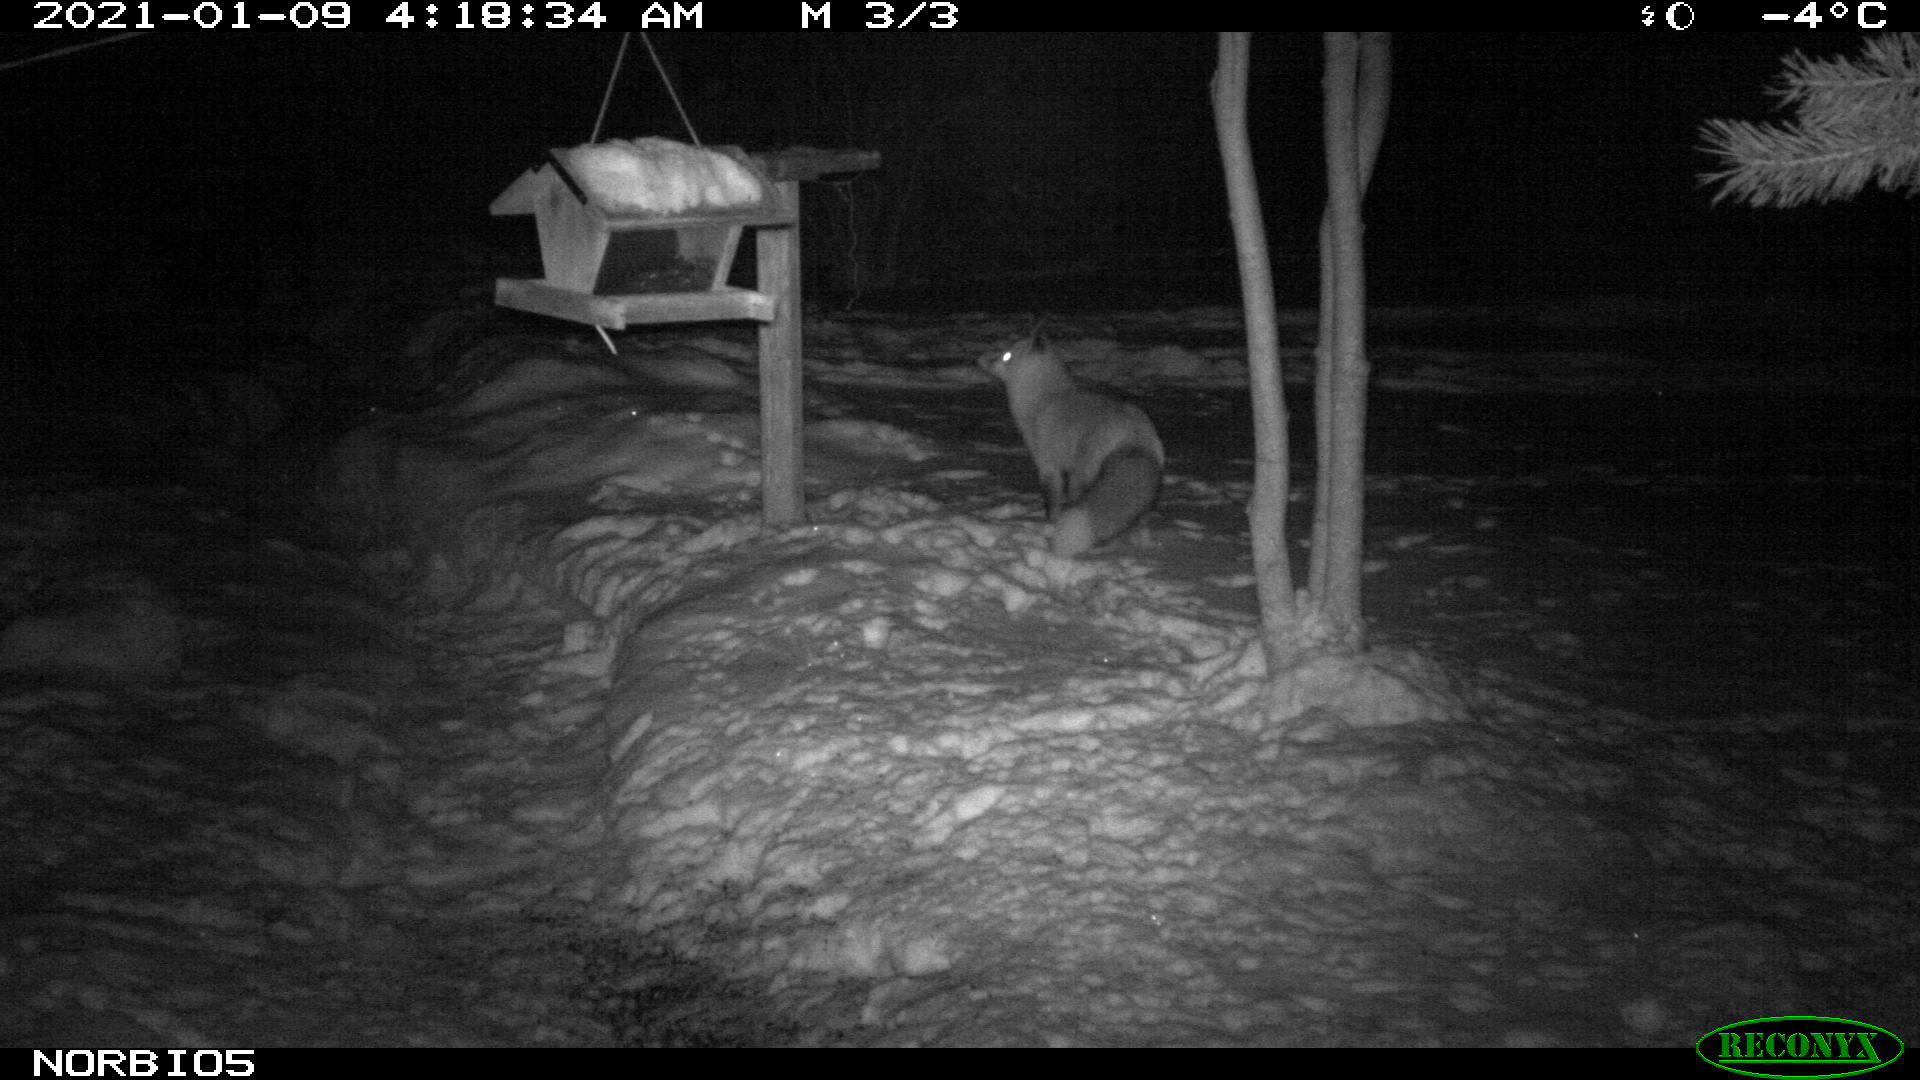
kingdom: Animalia
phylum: Chordata
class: Mammalia
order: Carnivora
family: Canidae
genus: Vulpes
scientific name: Vulpes vulpes
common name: Red fox
